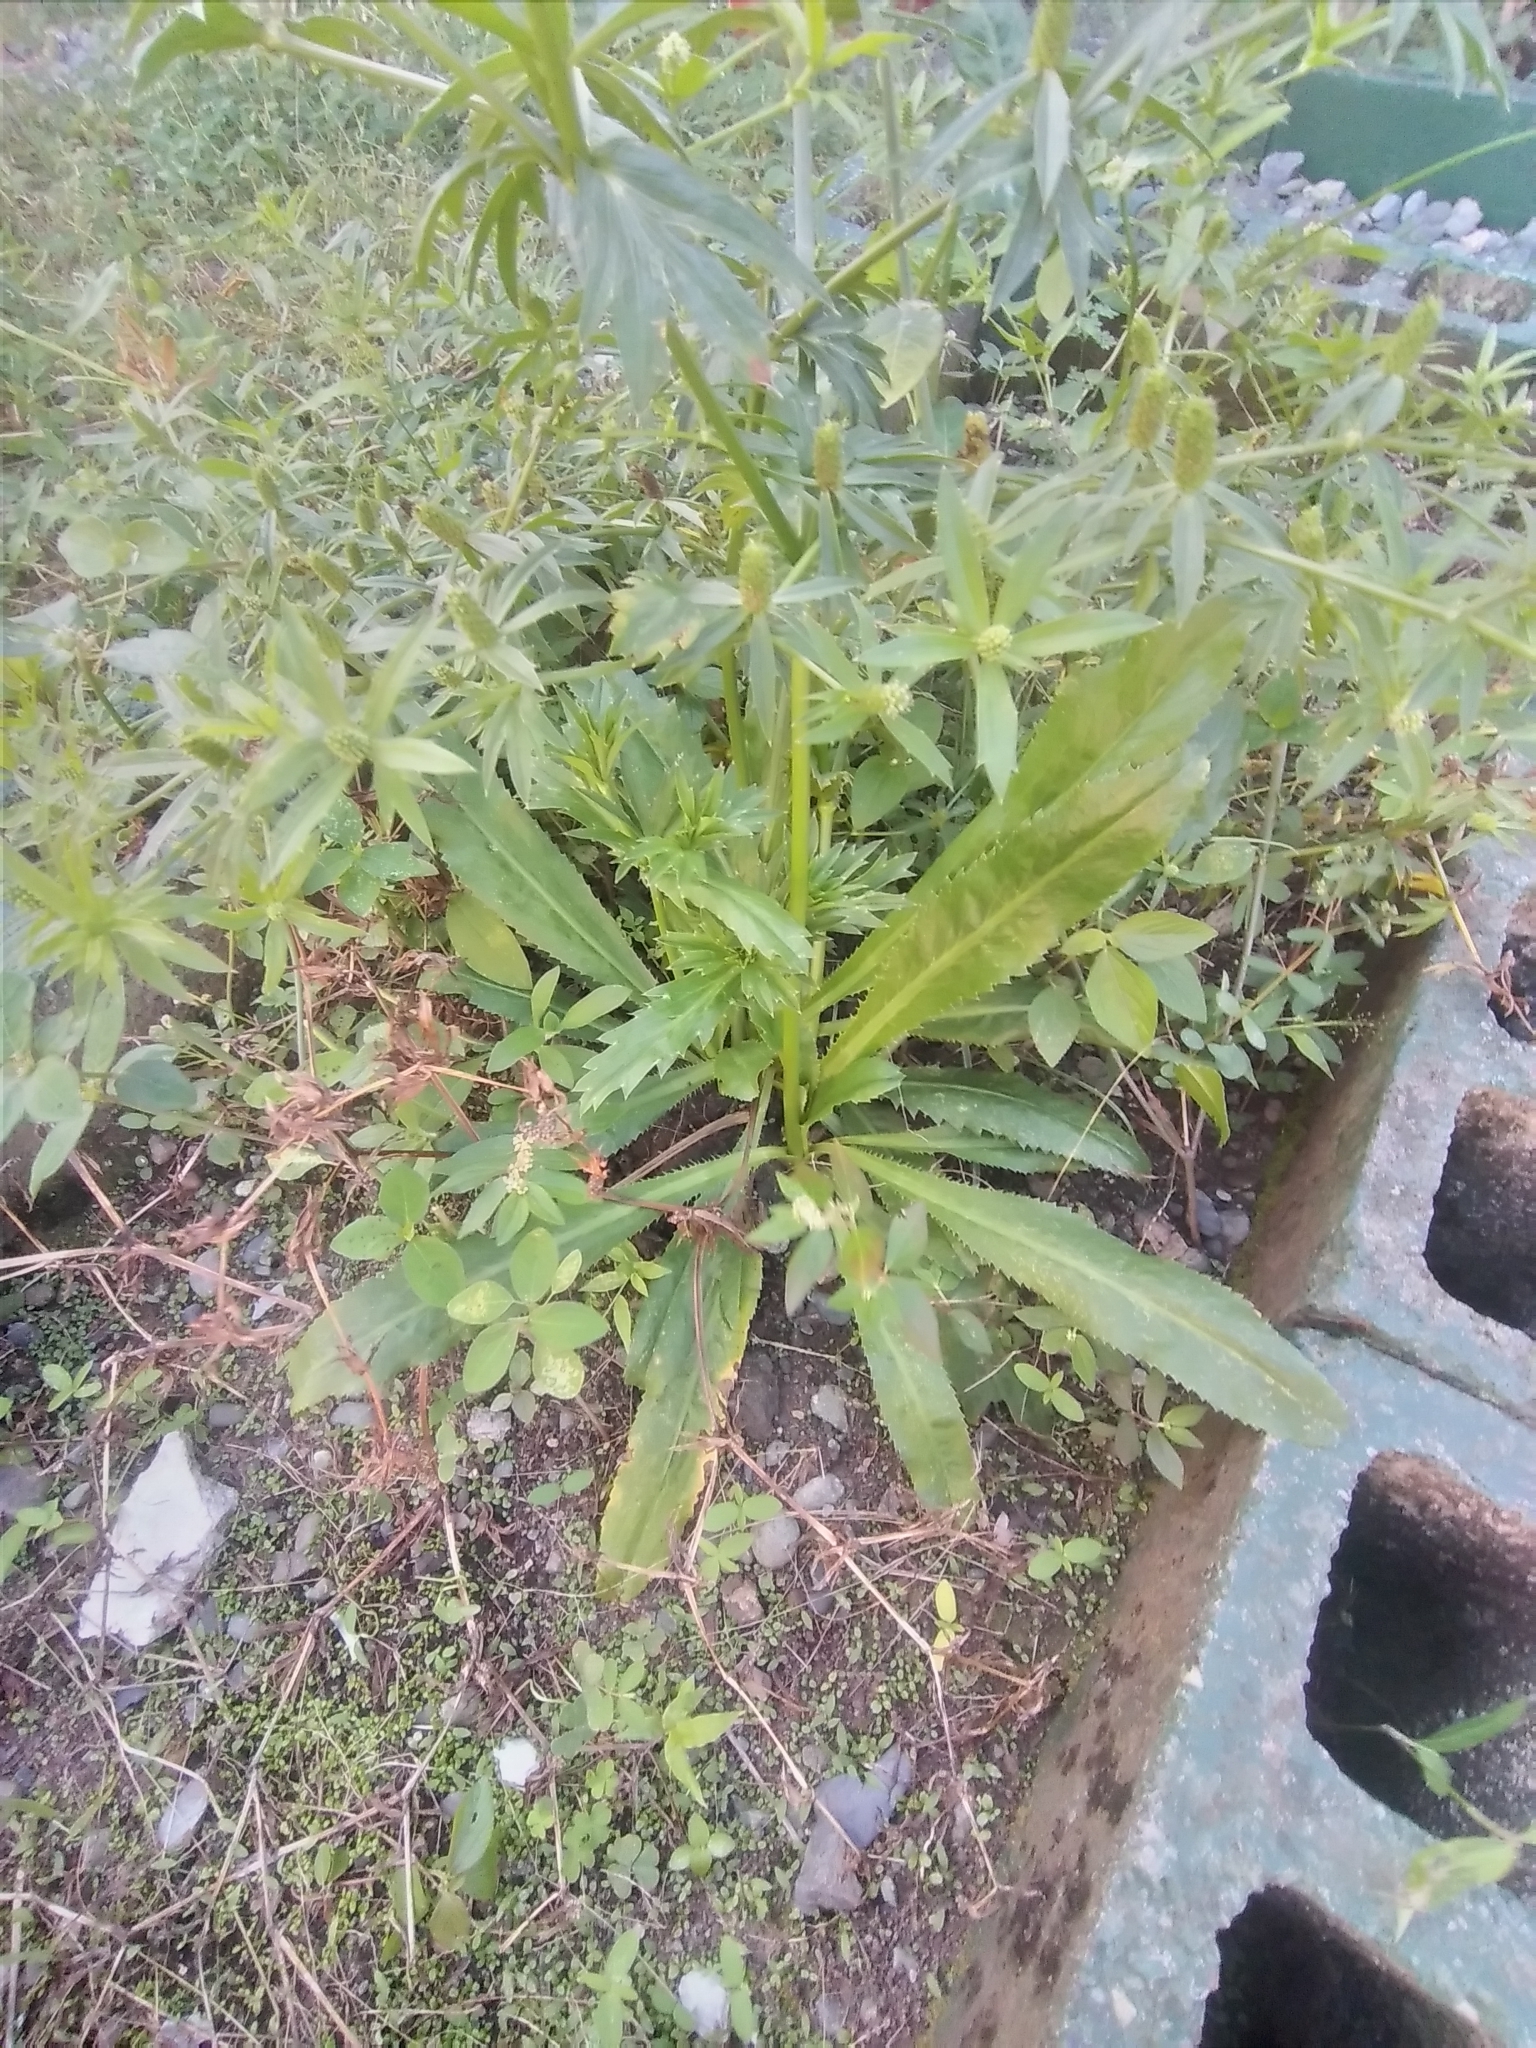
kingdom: Plantae
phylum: Tracheophyta
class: Magnoliopsida
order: Apiales
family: Apiaceae
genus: Eryngium
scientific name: Eryngium foetidum
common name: Fitweed
